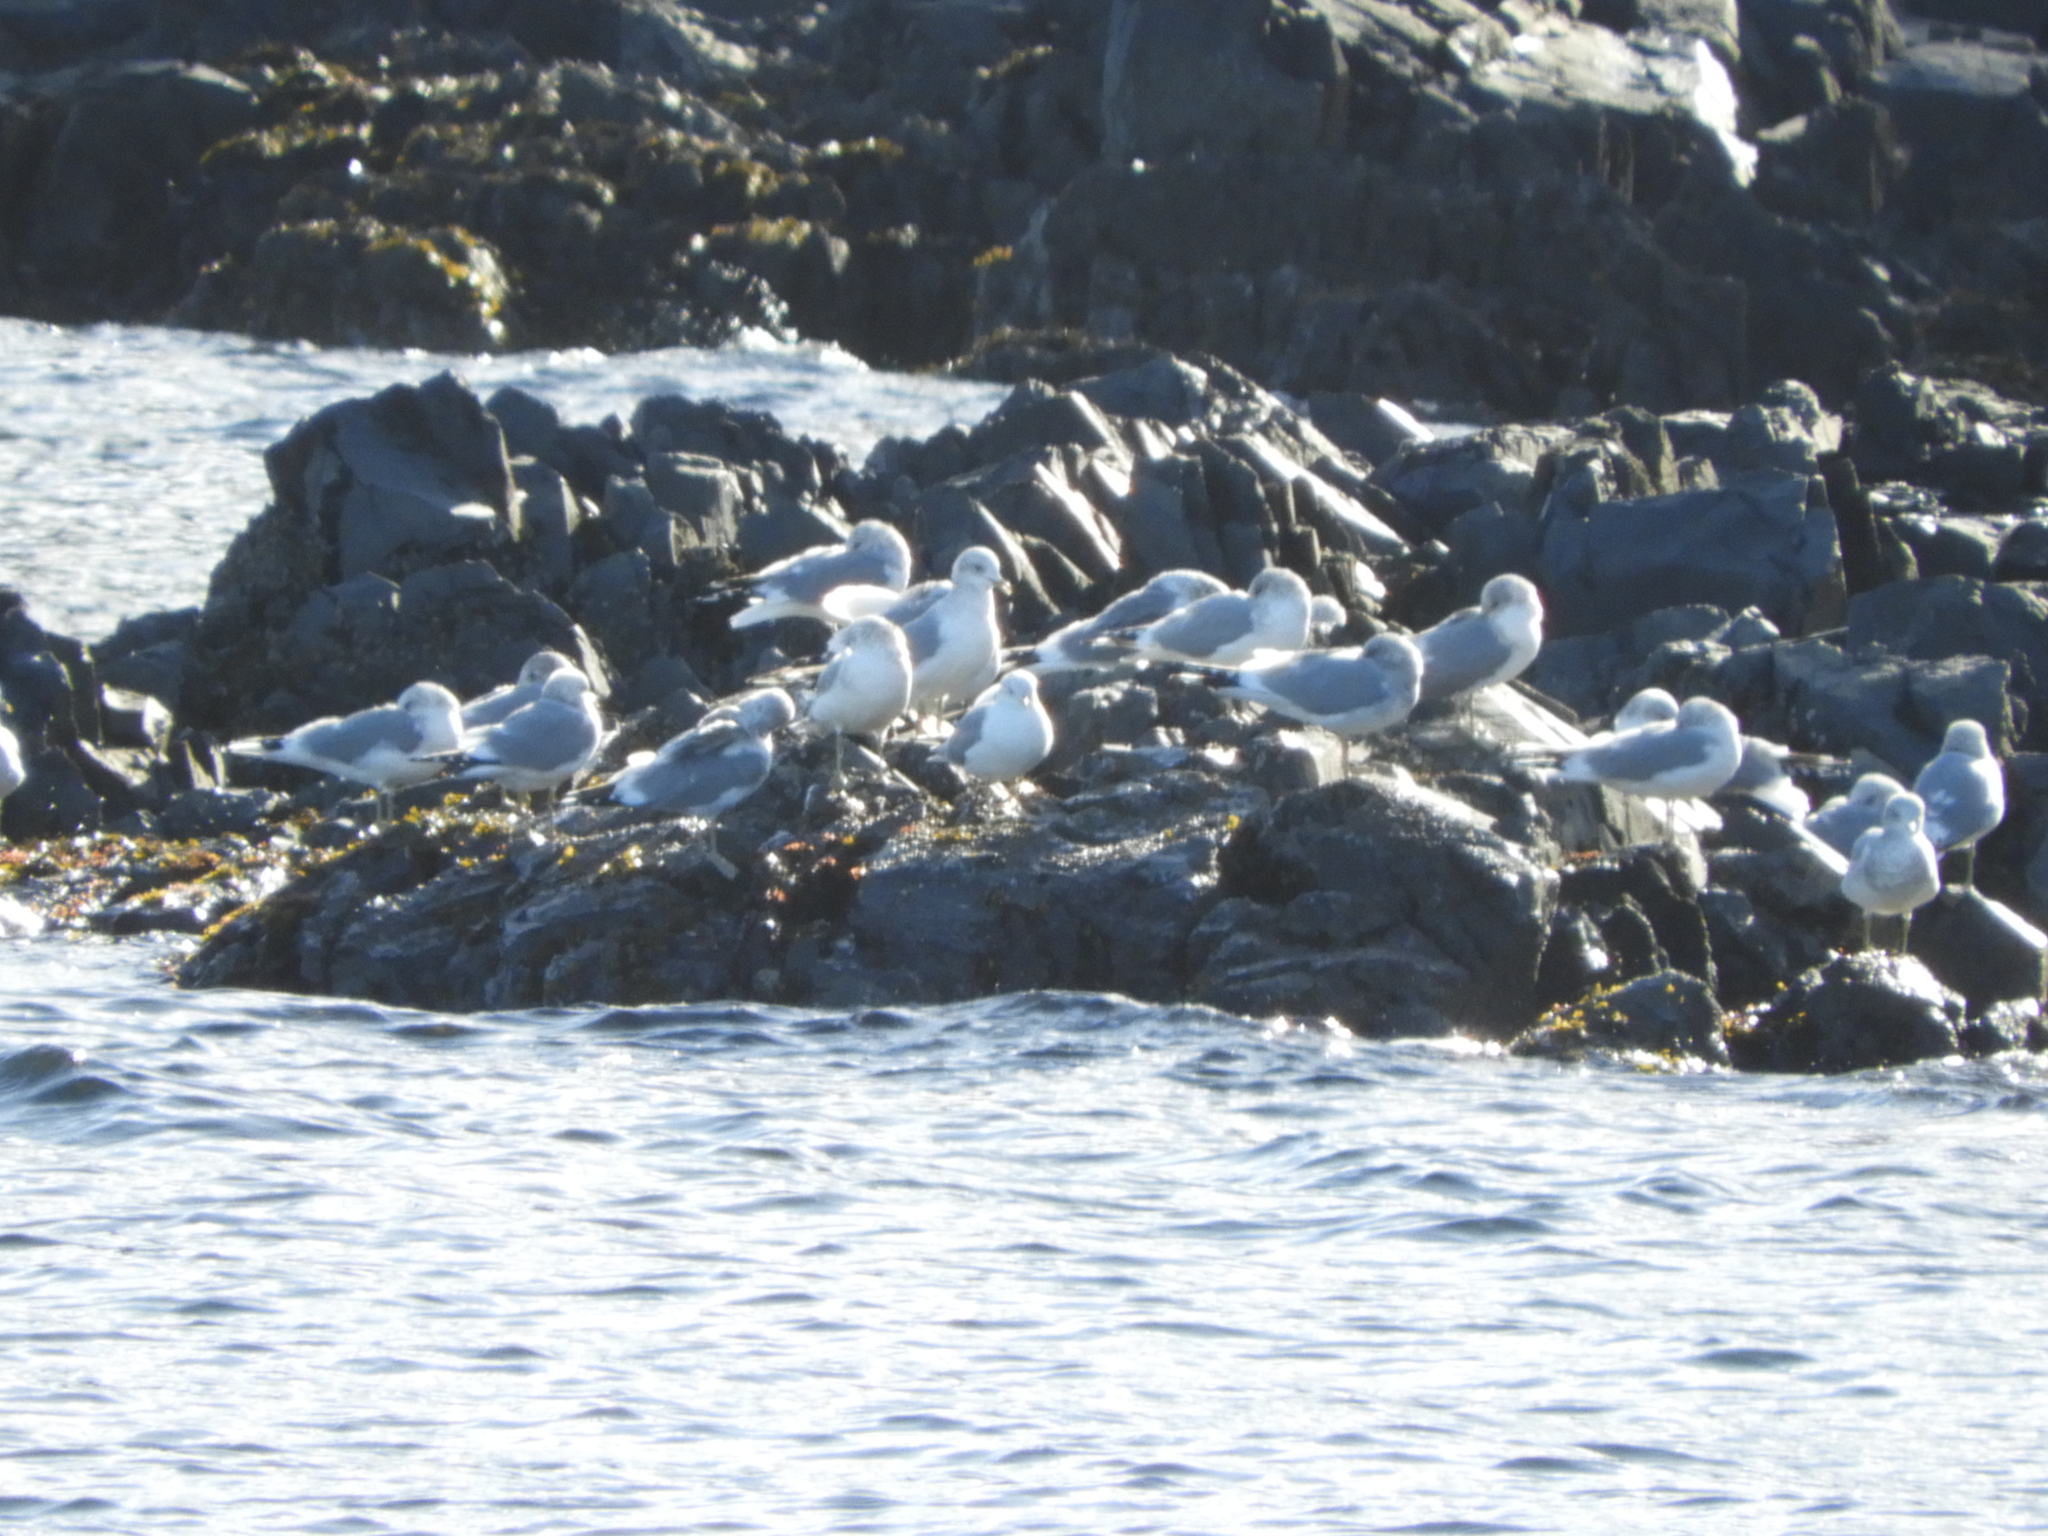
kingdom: Animalia
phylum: Chordata
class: Aves
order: Charadriiformes
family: Laridae
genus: Larus
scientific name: Larus brachyrhynchus
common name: Short-billed gull
